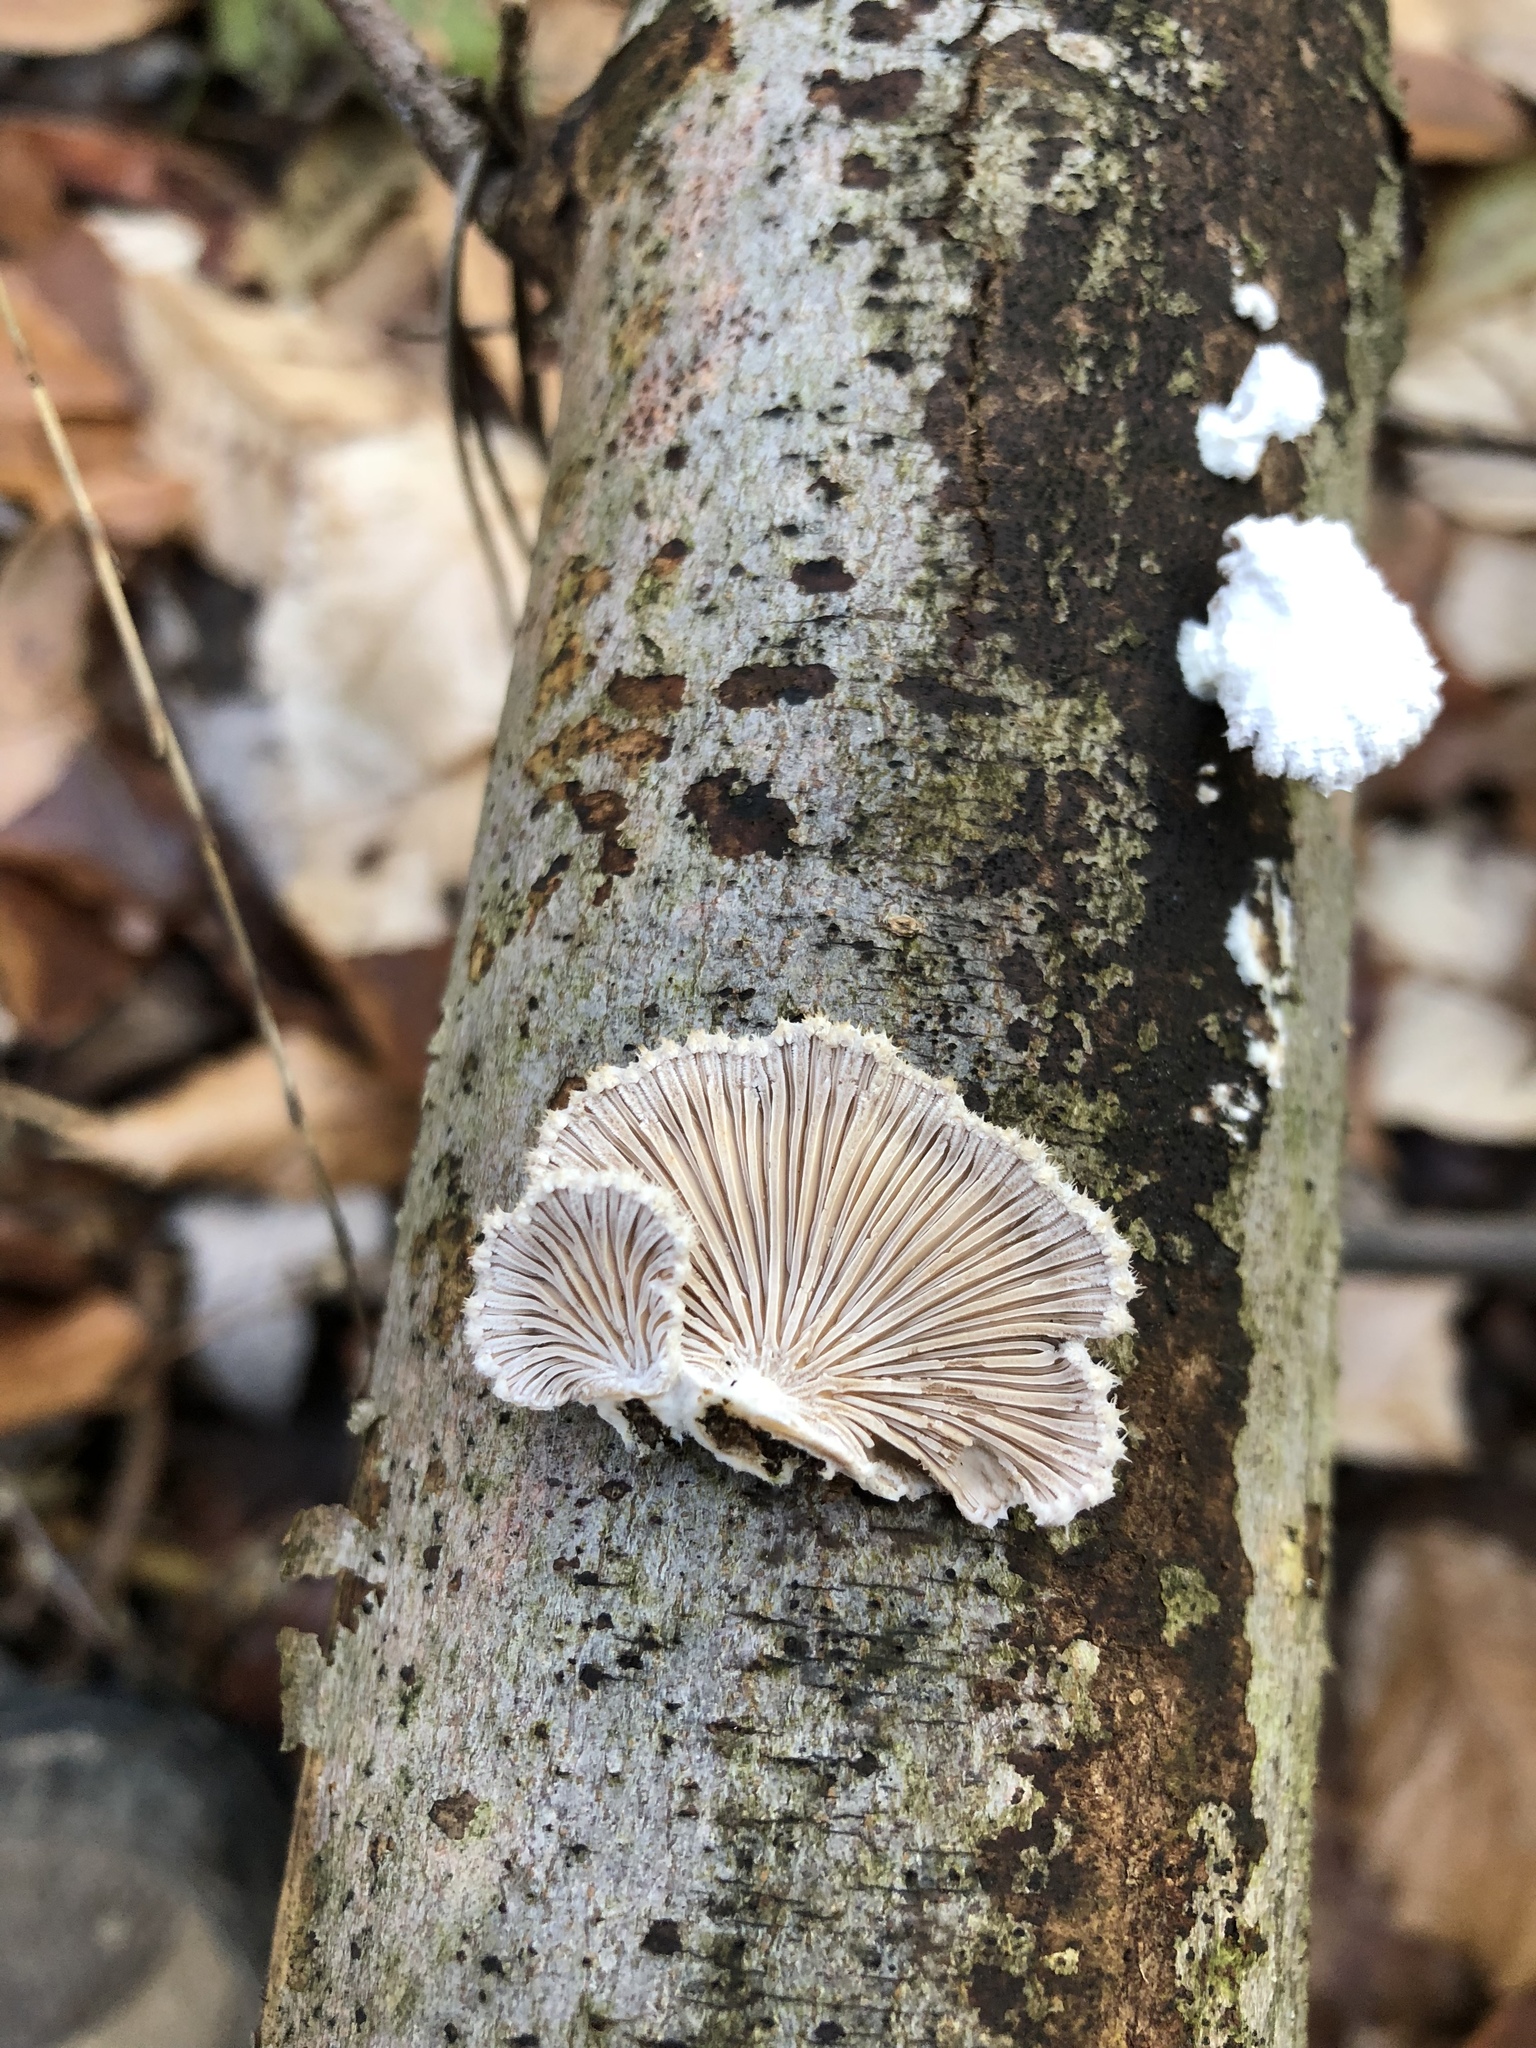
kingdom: Fungi
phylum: Basidiomycota
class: Agaricomycetes
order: Agaricales
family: Schizophyllaceae
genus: Schizophyllum
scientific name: Schizophyllum commune
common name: Common porecrust
